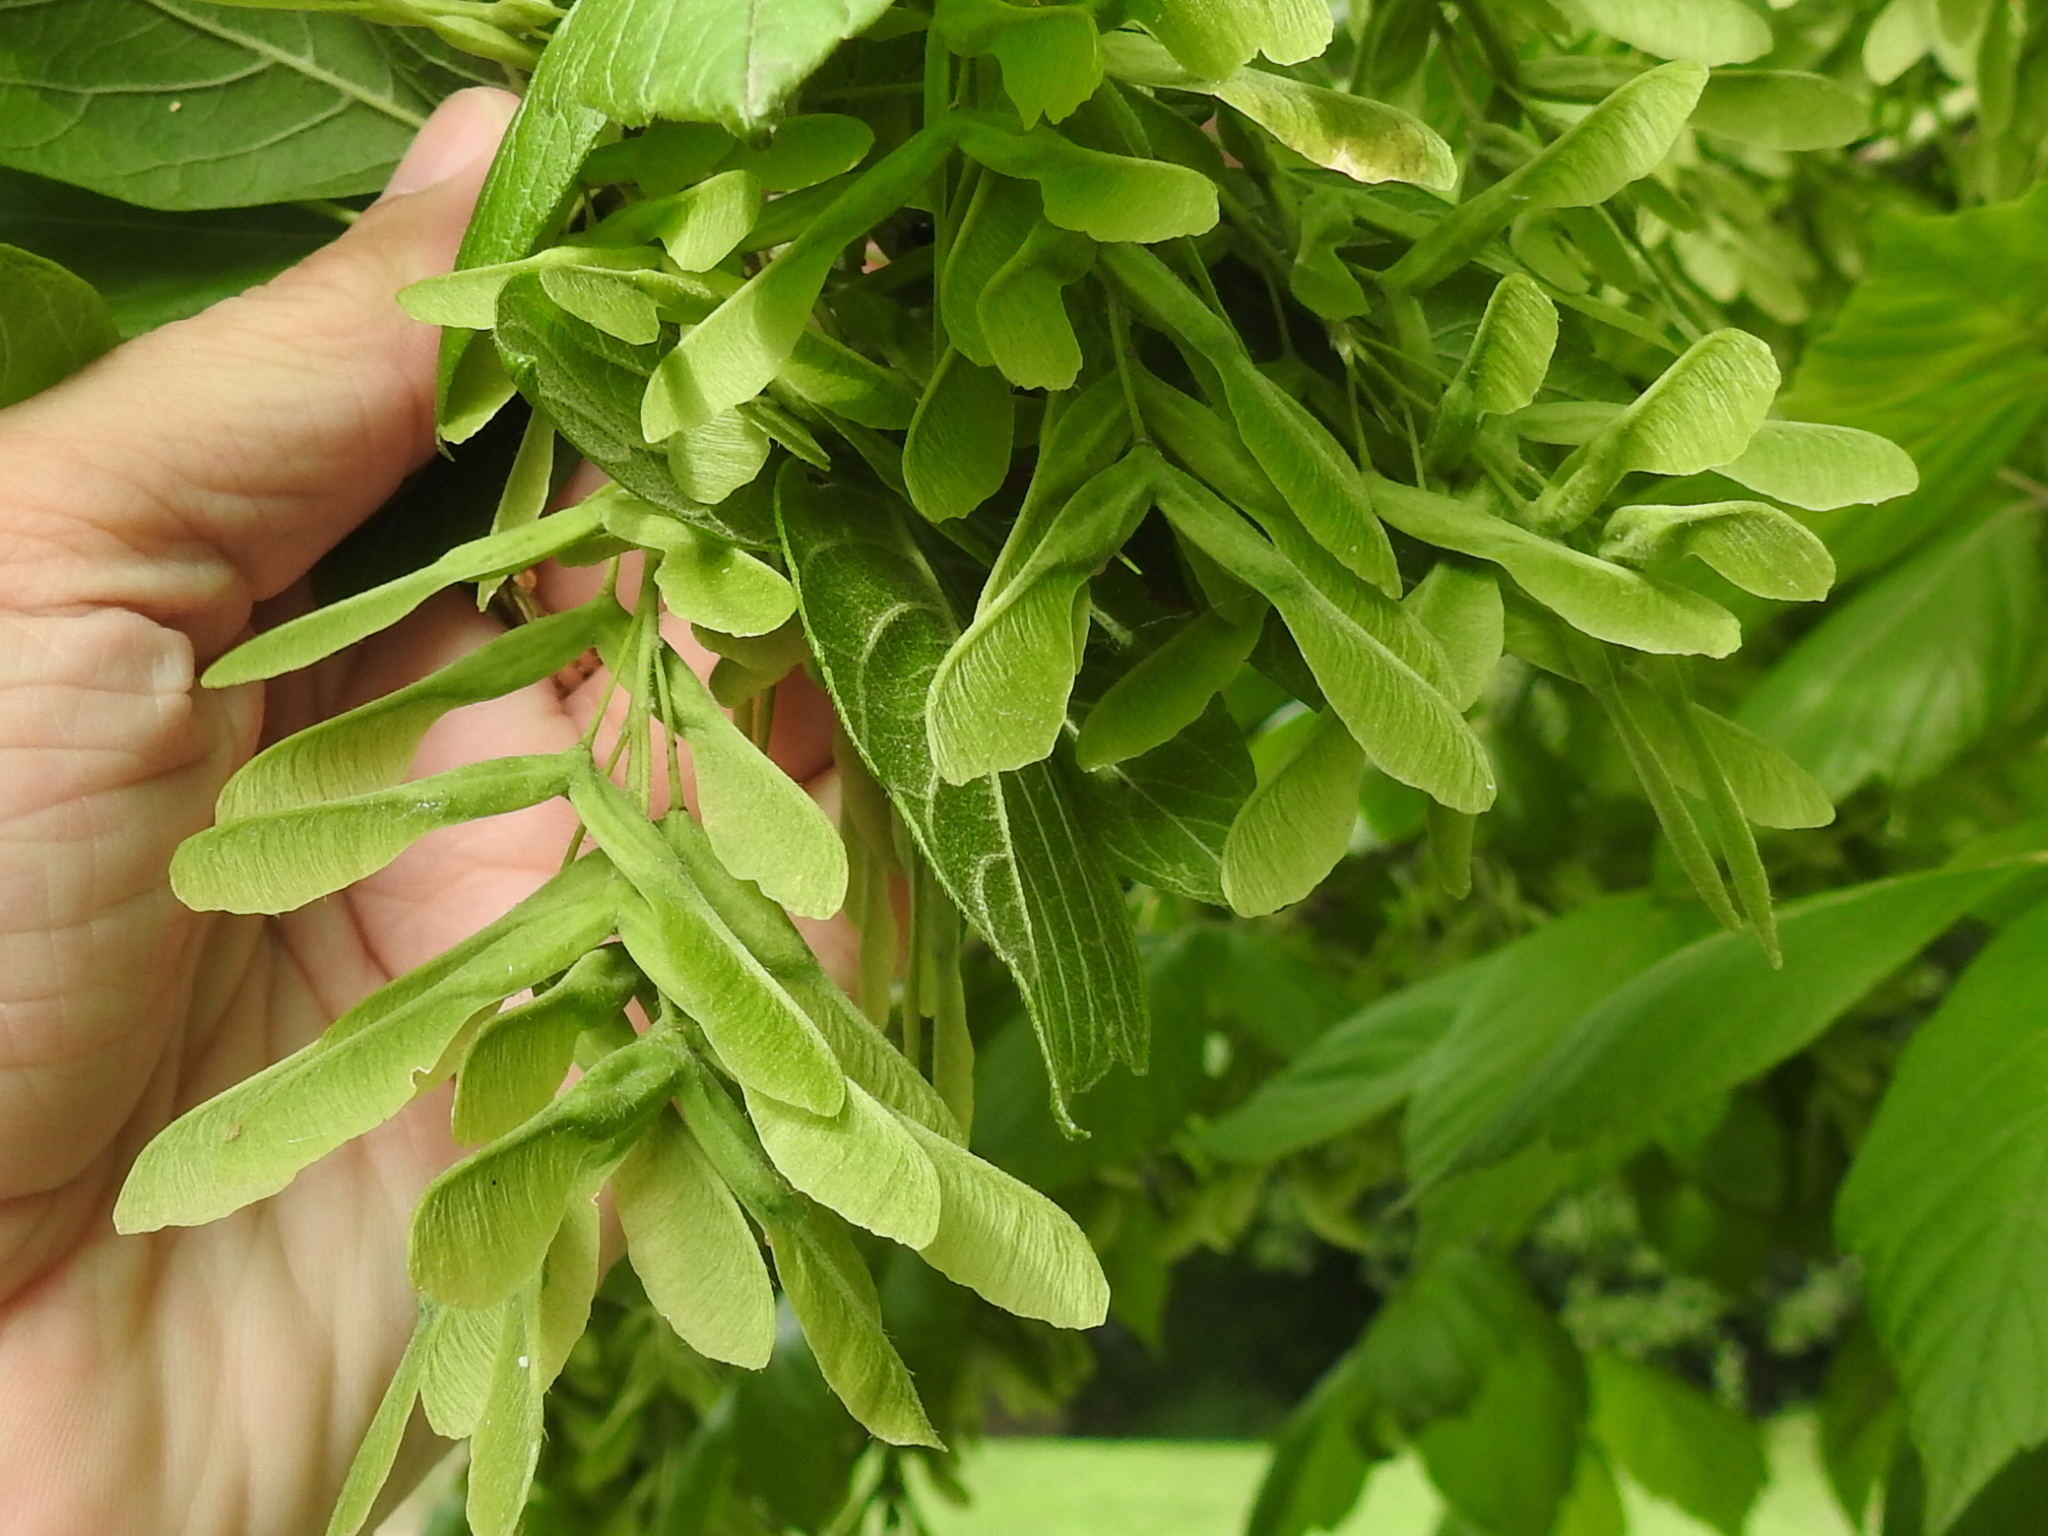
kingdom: Plantae
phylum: Tracheophyta
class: Magnoliopsida
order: Sapindales
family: Sapindaceae
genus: Acer
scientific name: Acer negundo
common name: Ashleaf maple
